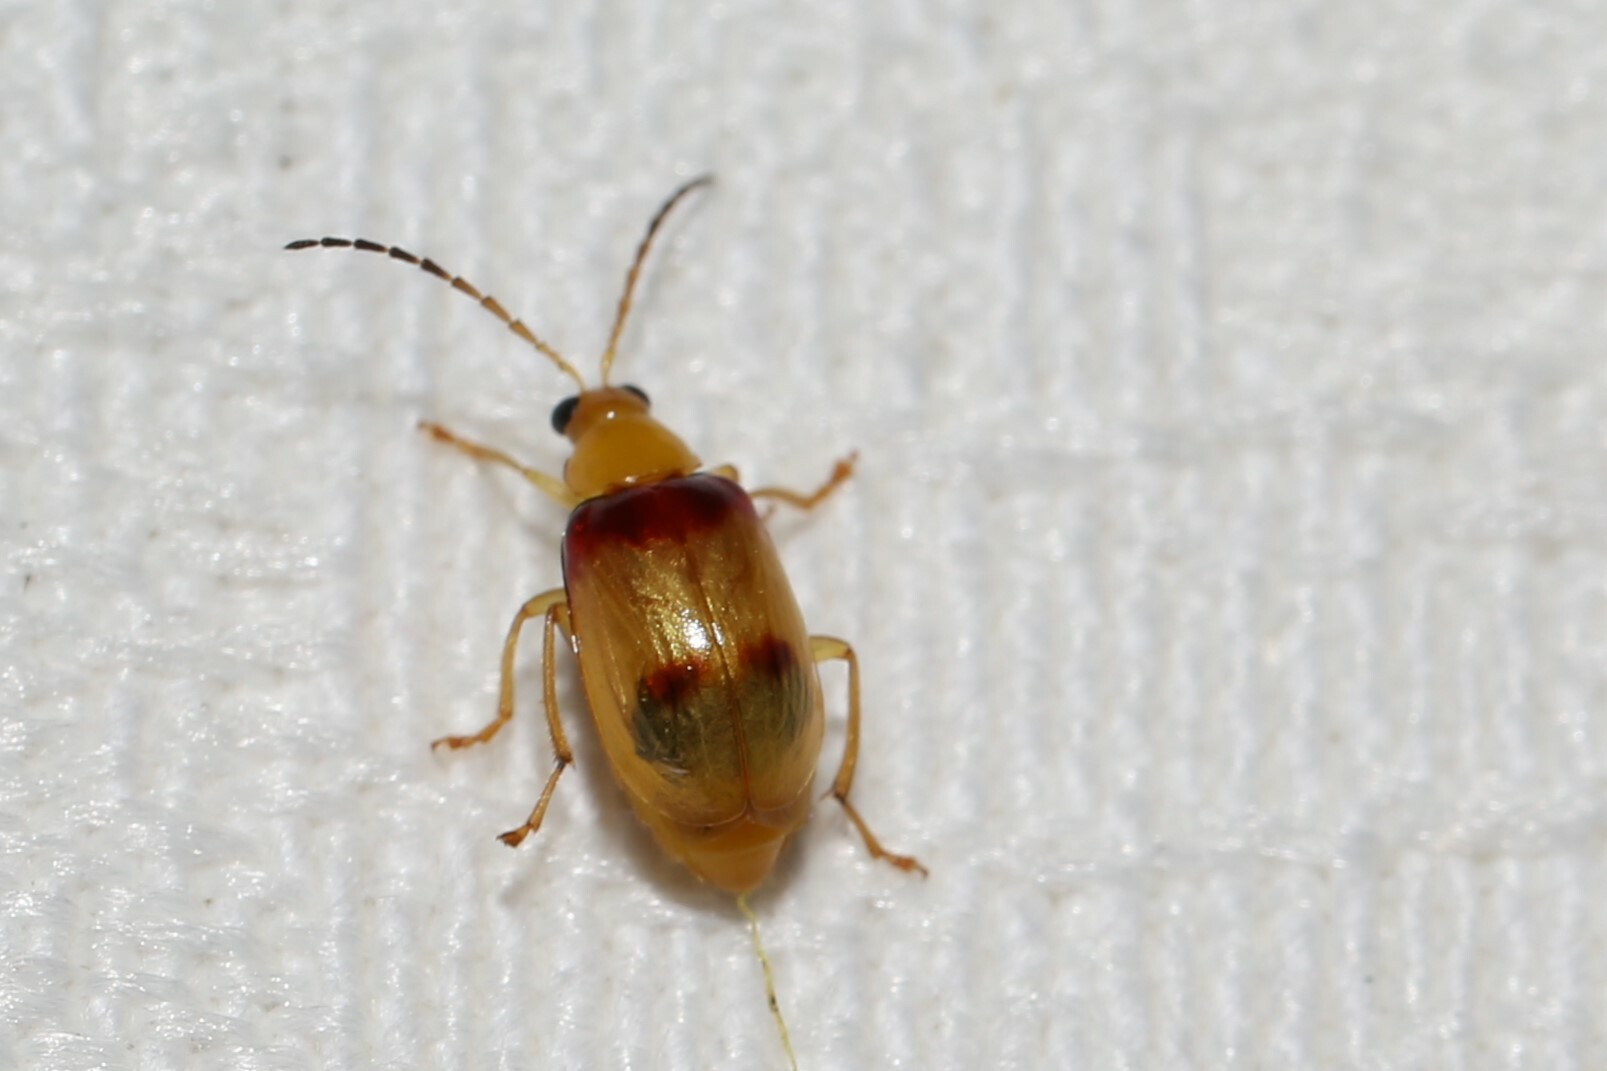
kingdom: Animalia
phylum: Arthropoda
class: Insecta
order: Coleoptera
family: Chrysomelidae
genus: Monolepta
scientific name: Monolepta
